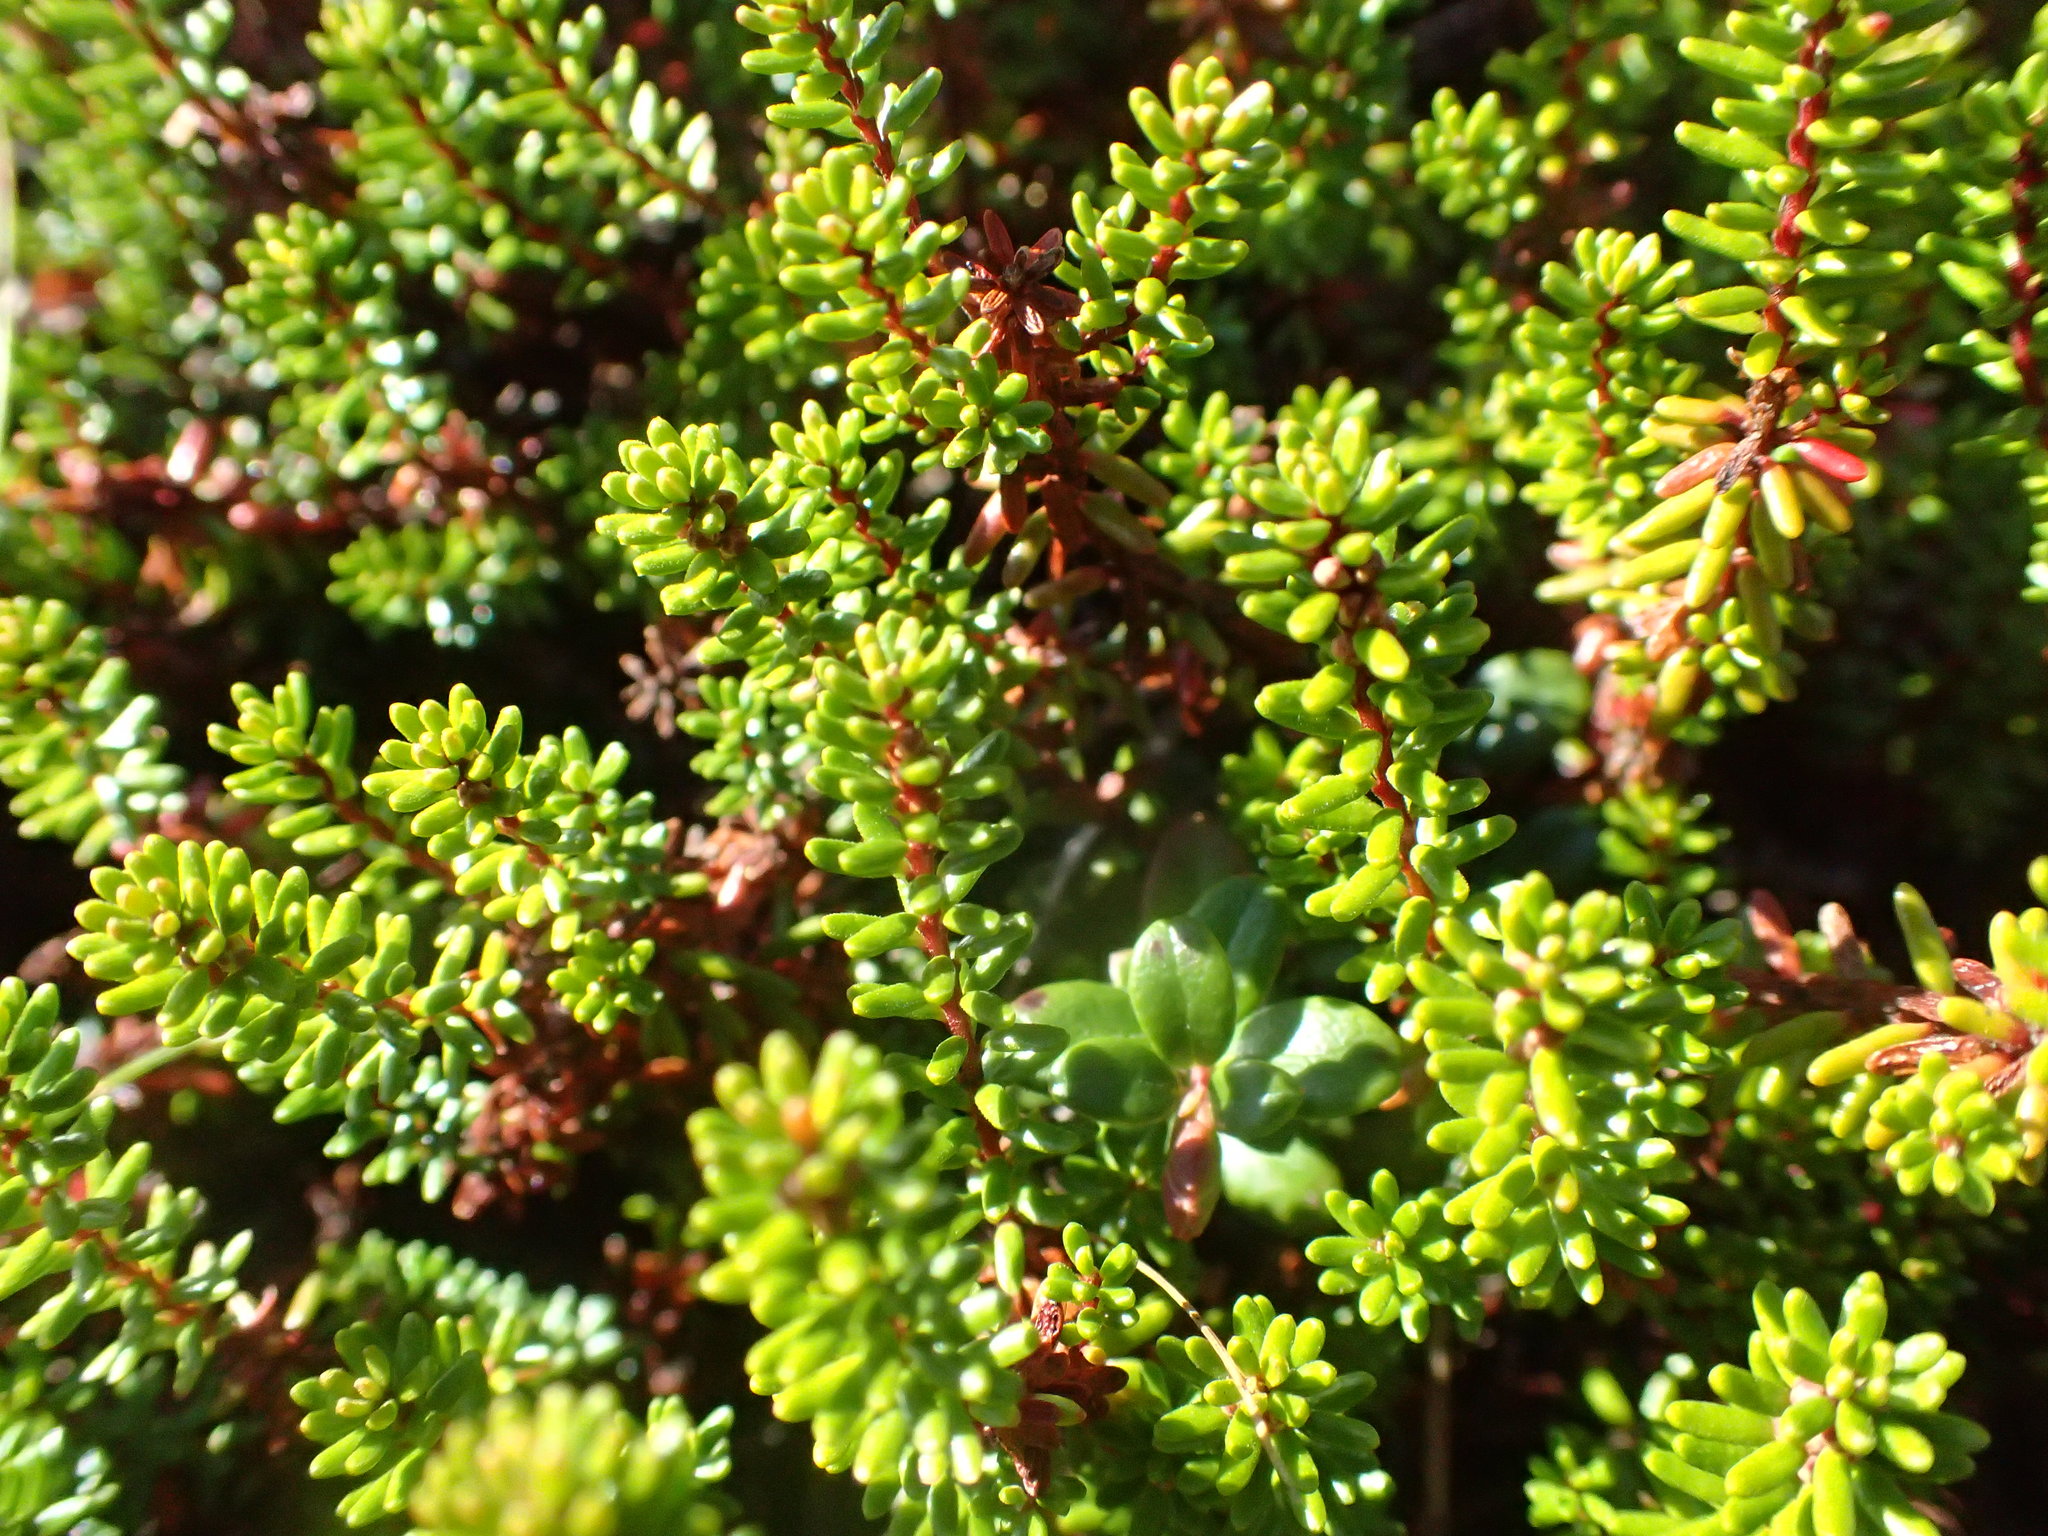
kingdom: Plantae
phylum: Tracheophyta
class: Magnoliopsida
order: Ericales
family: Ericaceae
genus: Empetrum
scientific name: Empetrum nigrum
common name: Black crowberry
